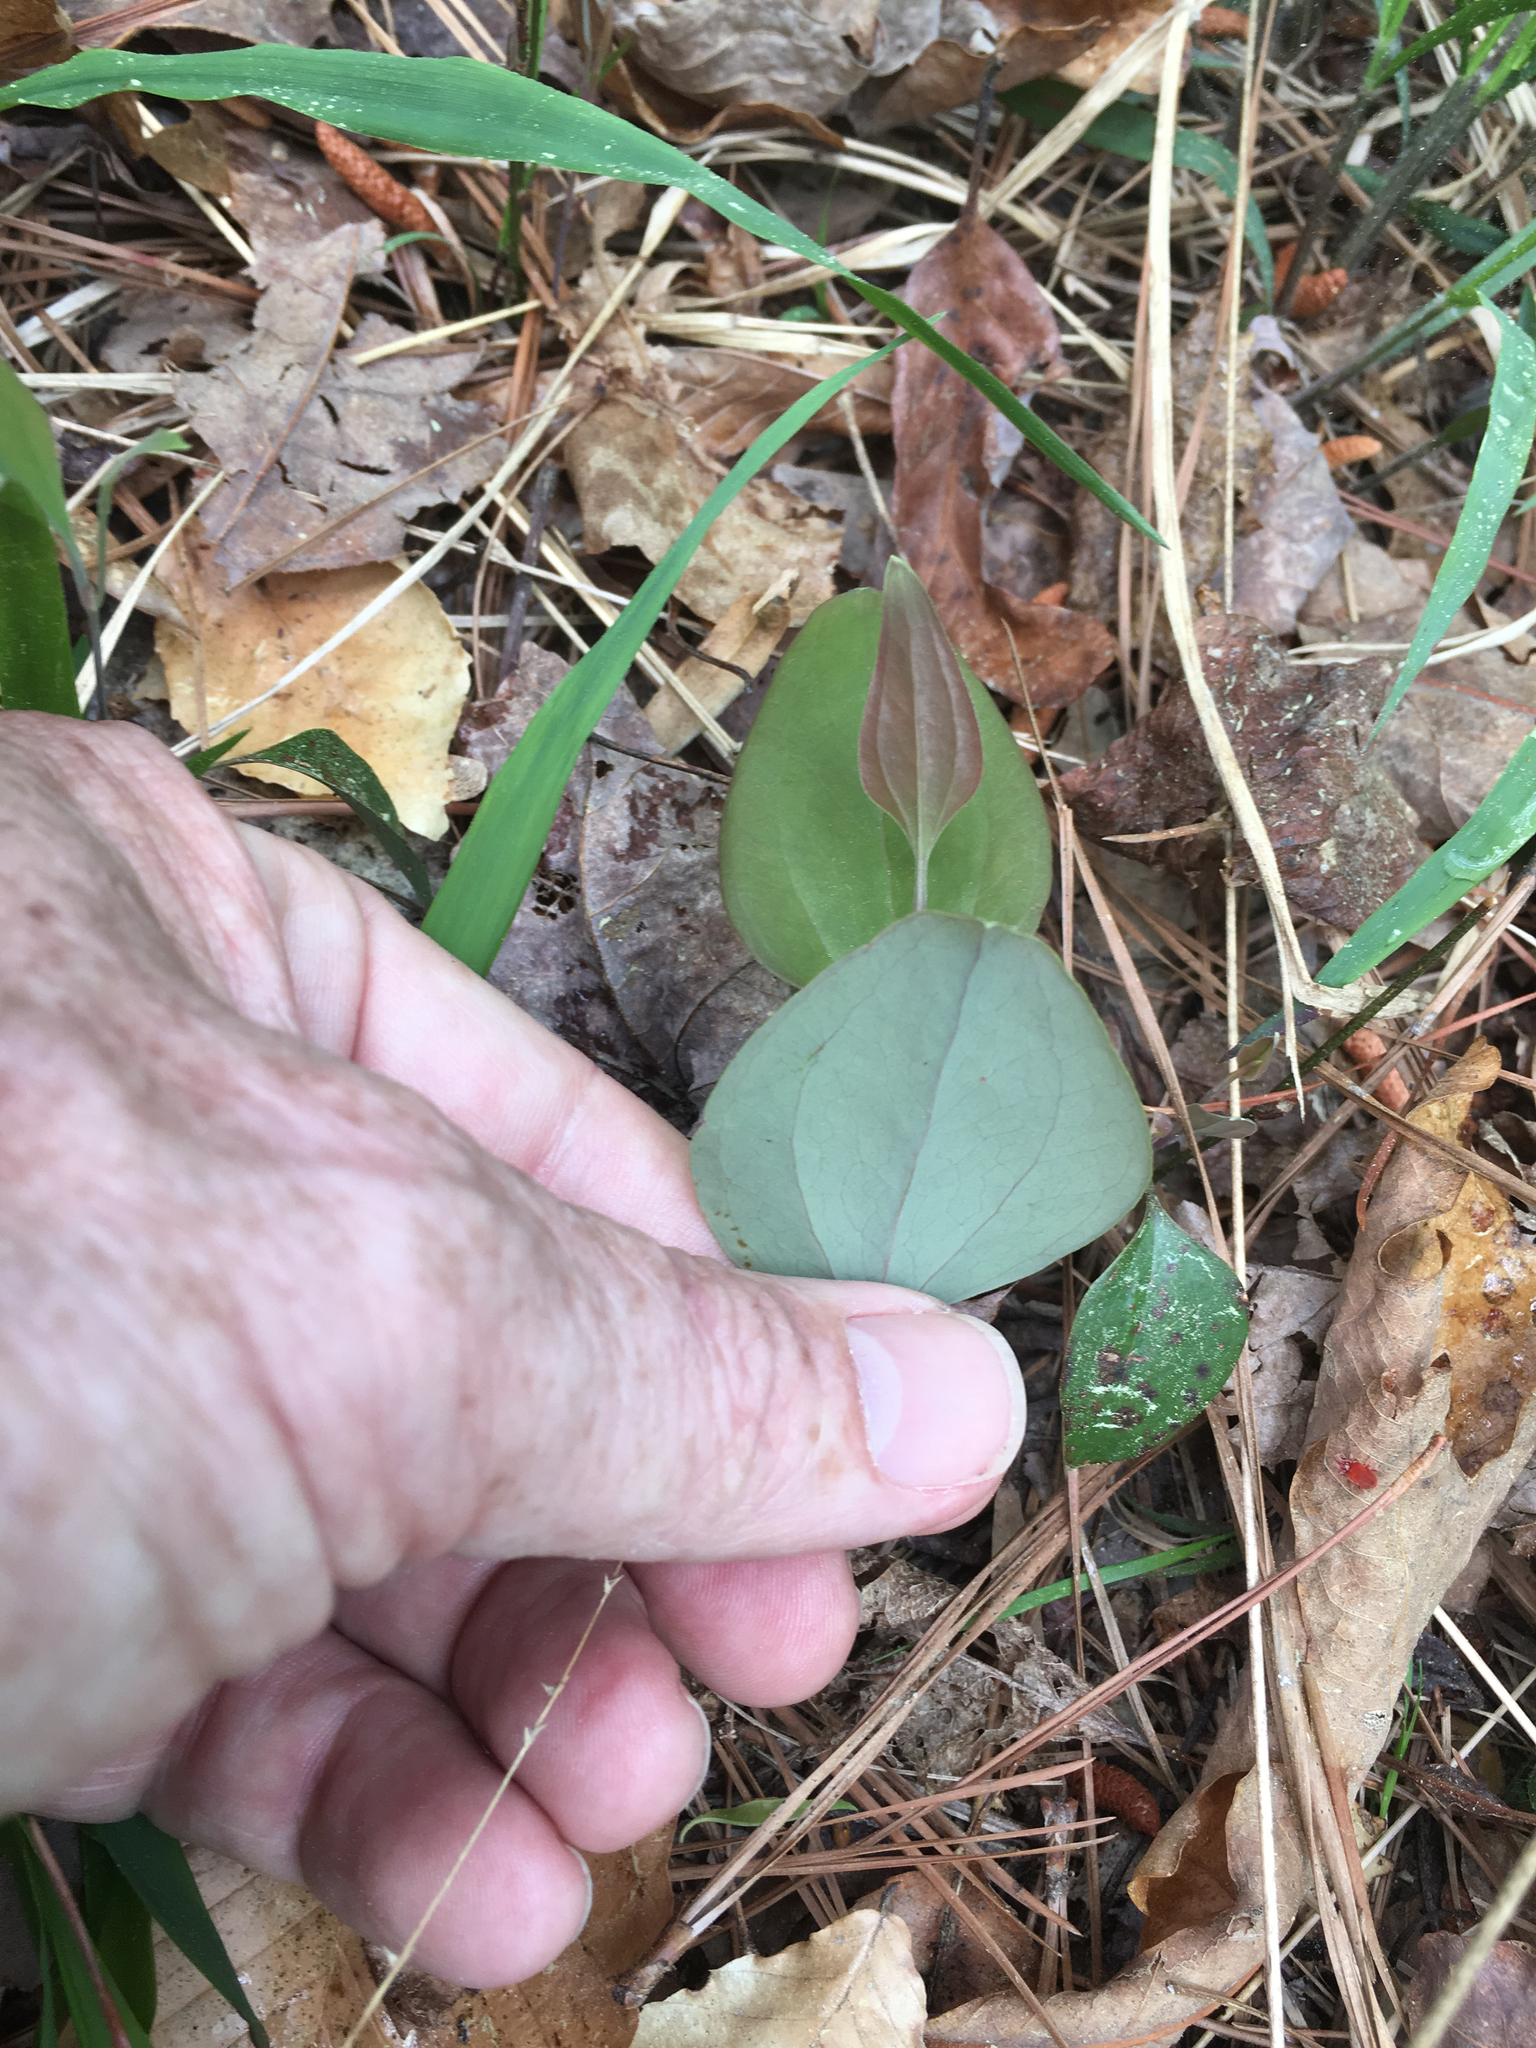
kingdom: Plantae
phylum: Tracheophyta
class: Liliopsida
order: Liliales
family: Smilacaceae
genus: Smilax
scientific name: Smilax glauca
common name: Cat greenbrier
